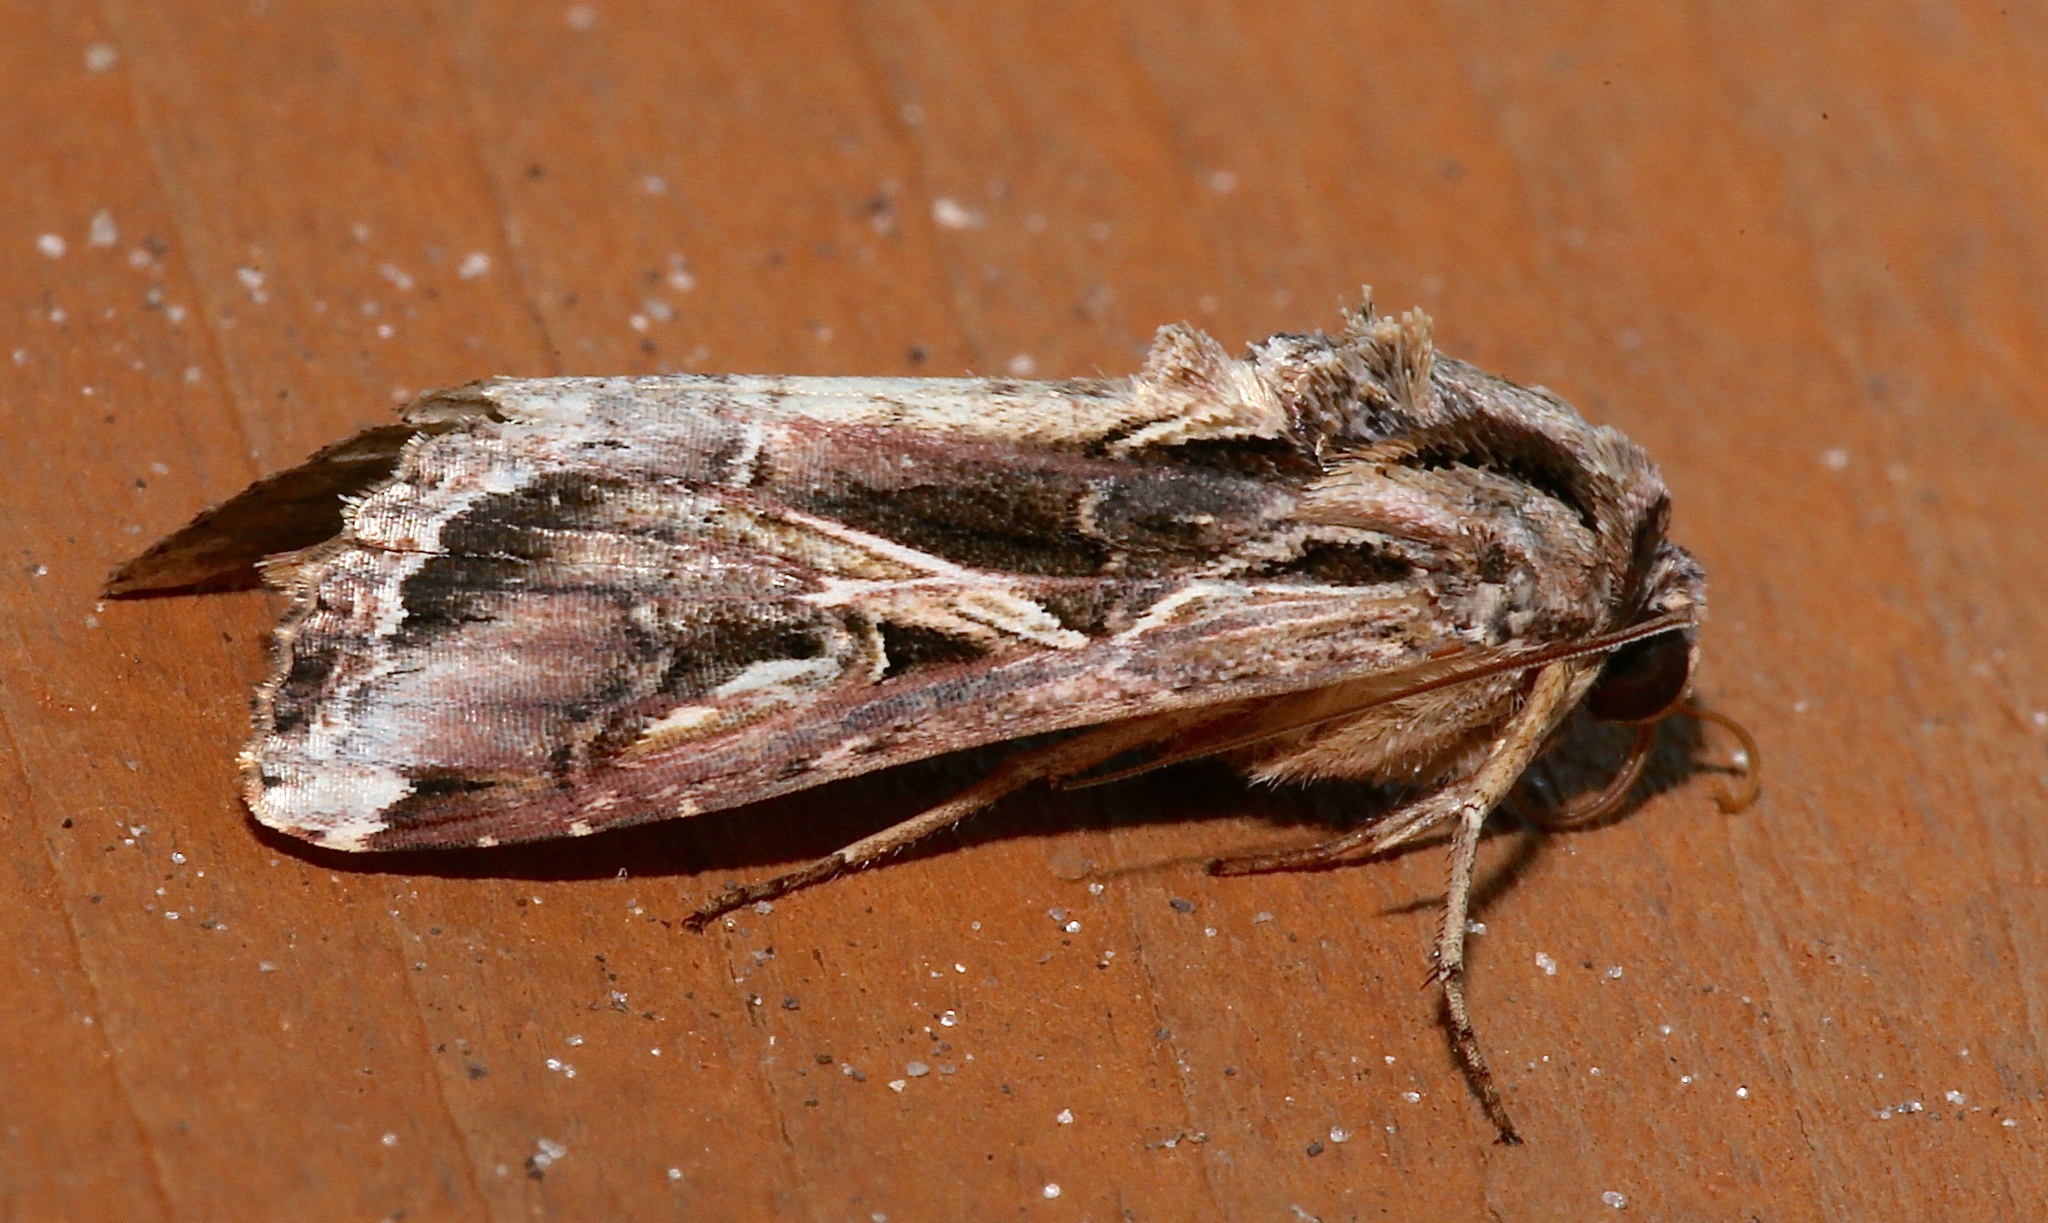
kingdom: Animalia
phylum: Arthropoda
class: Insecta
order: Lepidoptera
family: Noctuidae
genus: Spodoptera
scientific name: Spodoptera dolichos
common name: Sweetpotato armyworm
